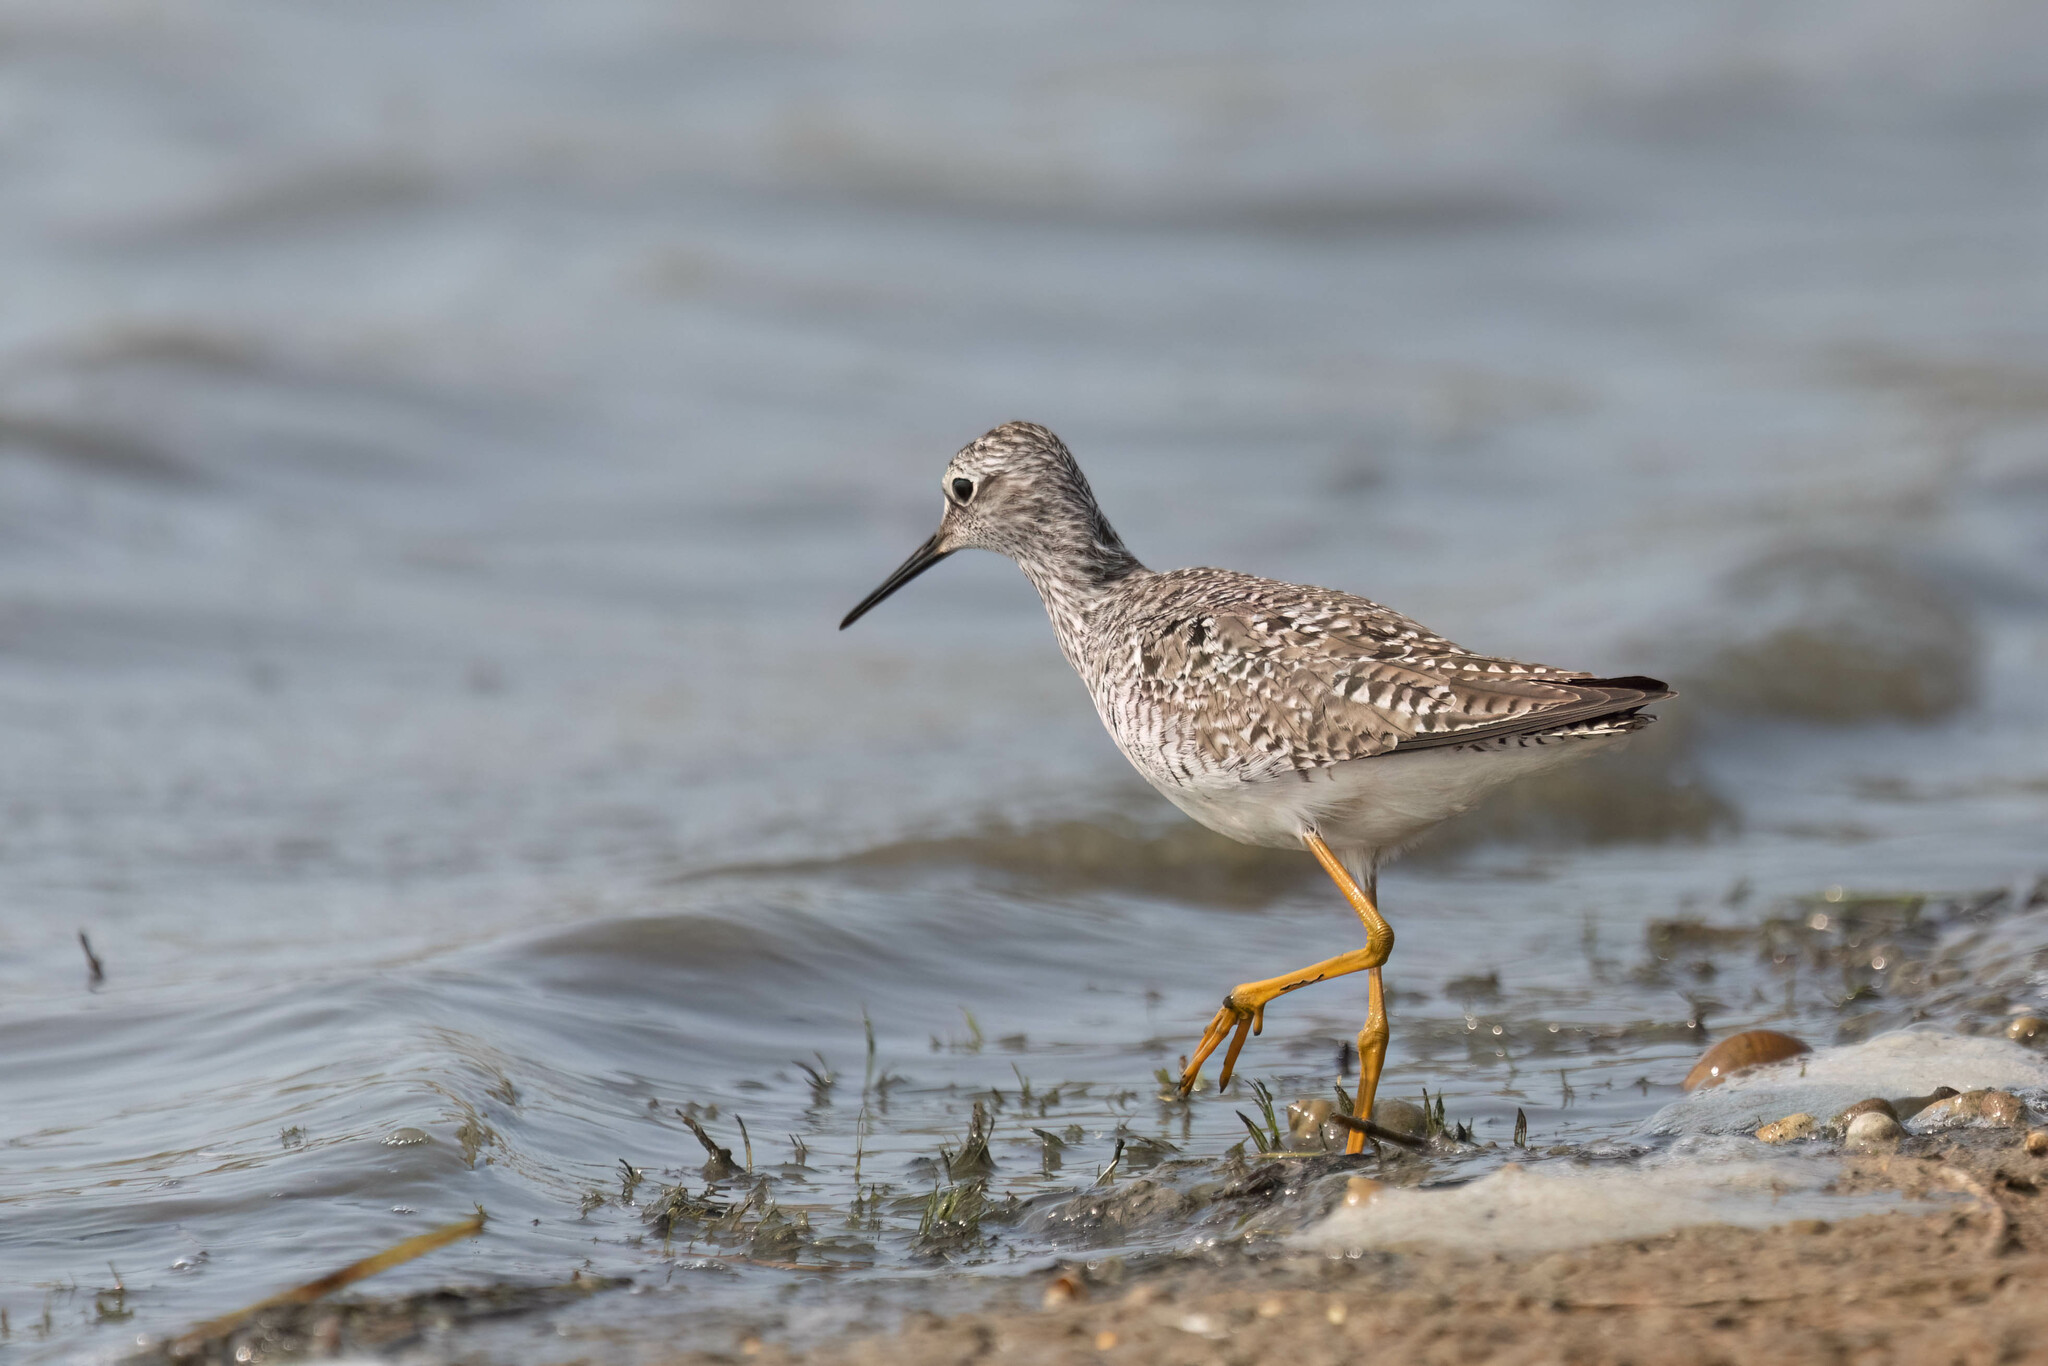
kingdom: Animalia
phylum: Chordata
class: Aves
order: Charadriiformes
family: Scolopacidae
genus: Tringa
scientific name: Tringa flavipes
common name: Lesser yellowlegs
